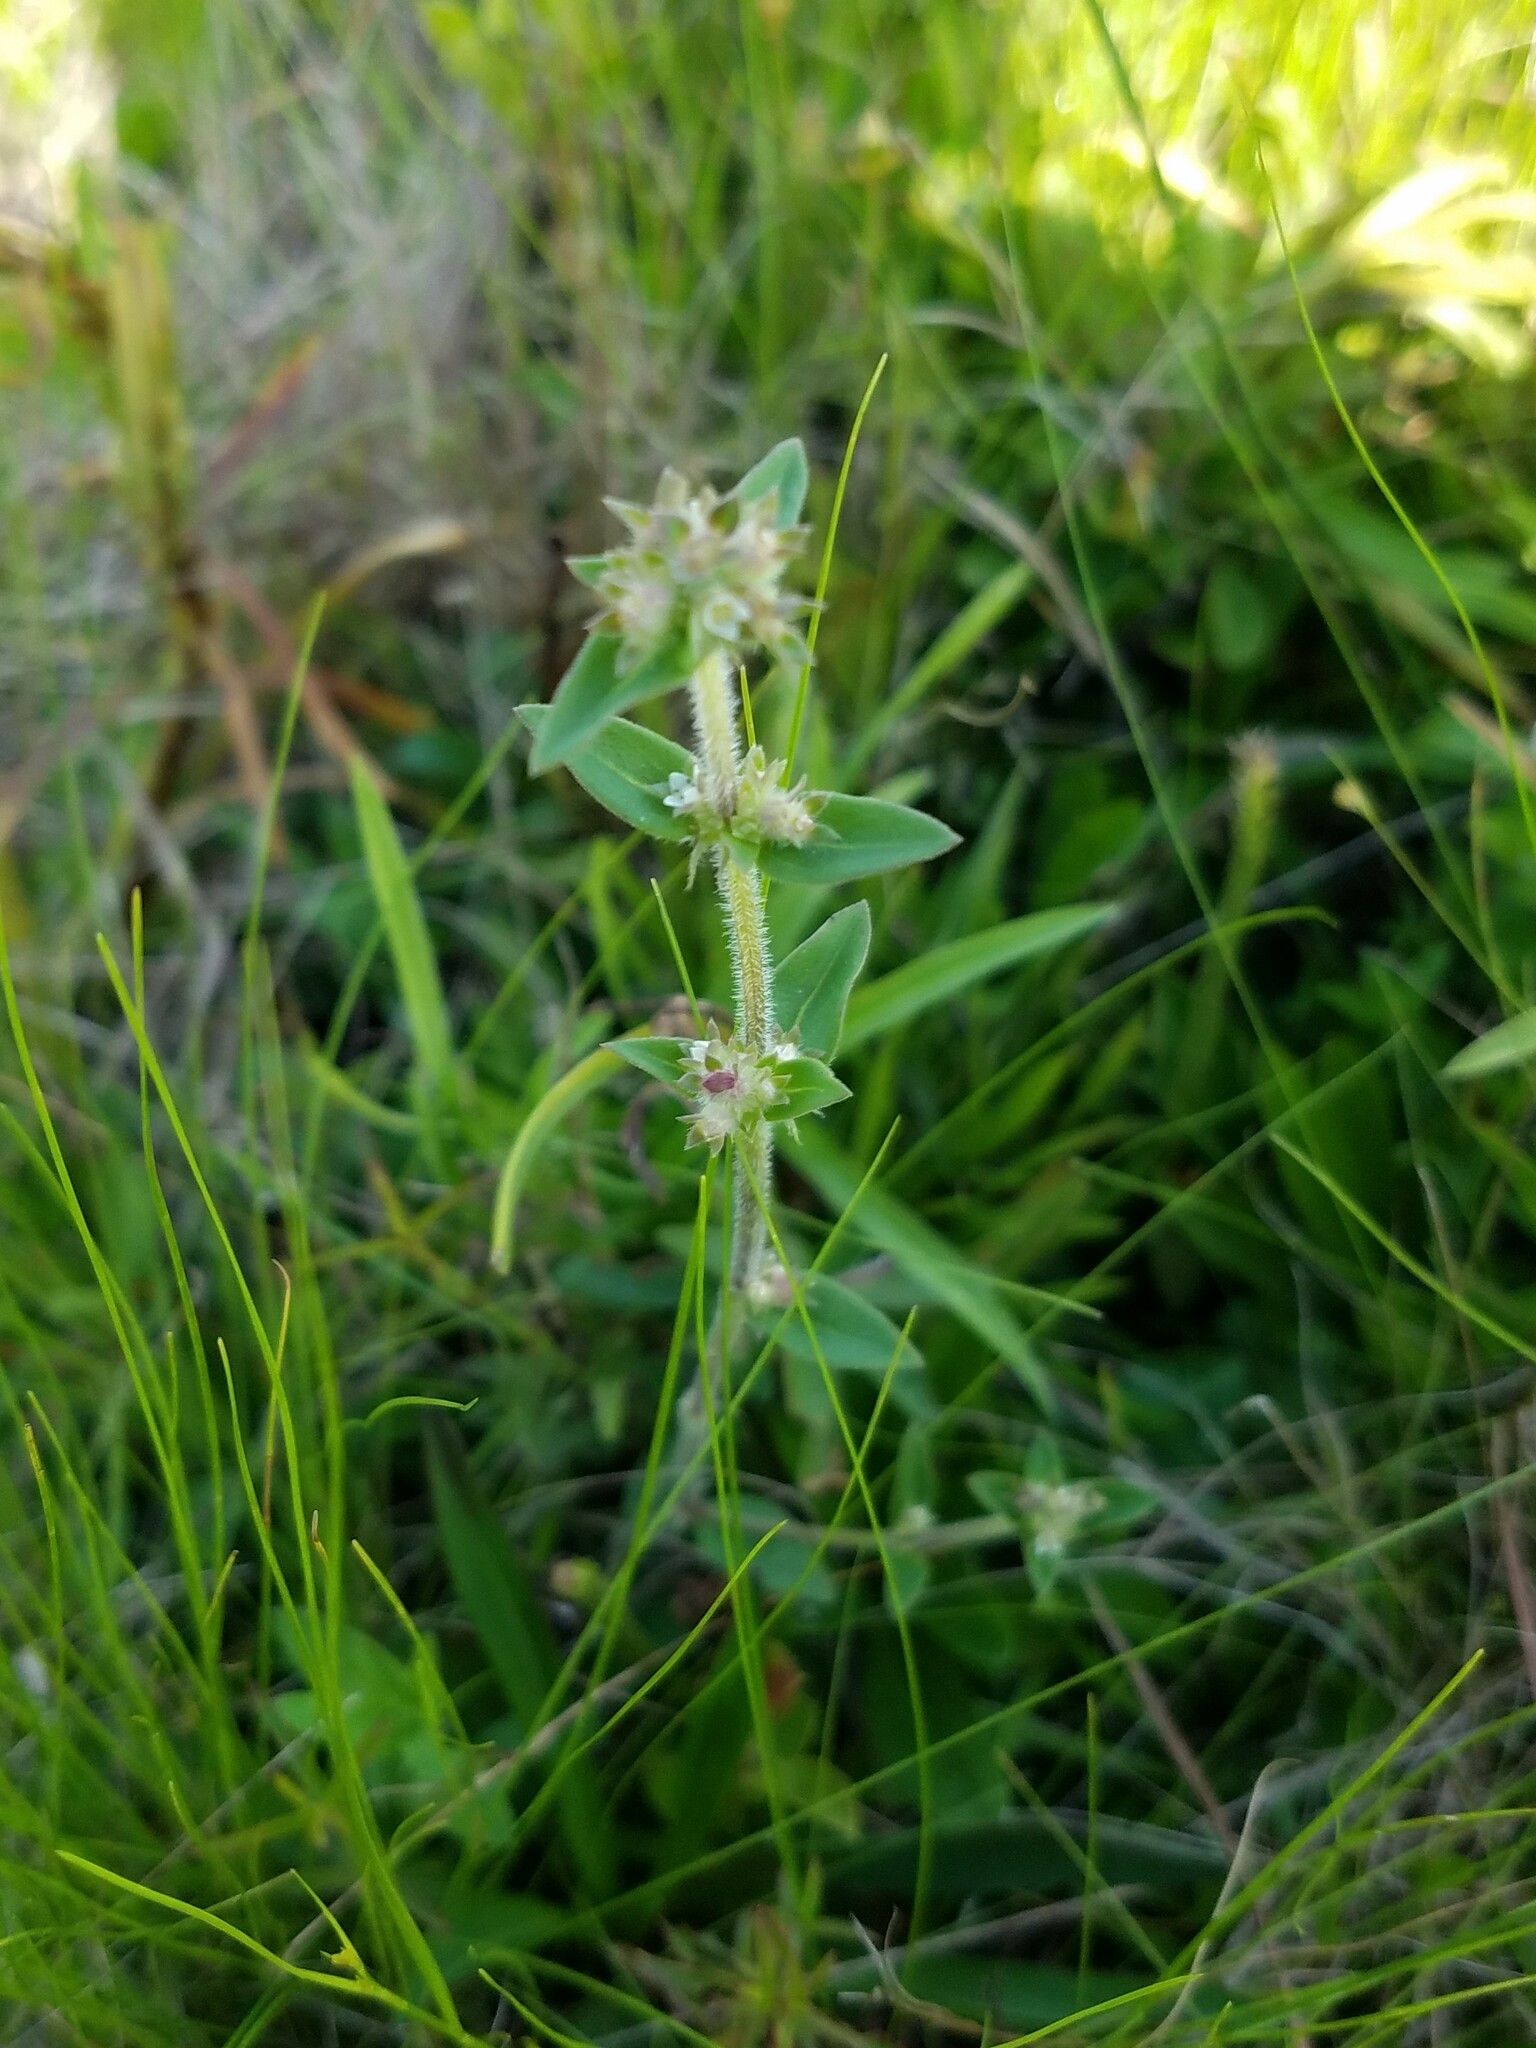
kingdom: Plantae
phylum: Tracheophyta
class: Magnoliopsida
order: Gentianales
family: Rubiaceae
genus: Edrastima
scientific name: Edrastima uniflora
